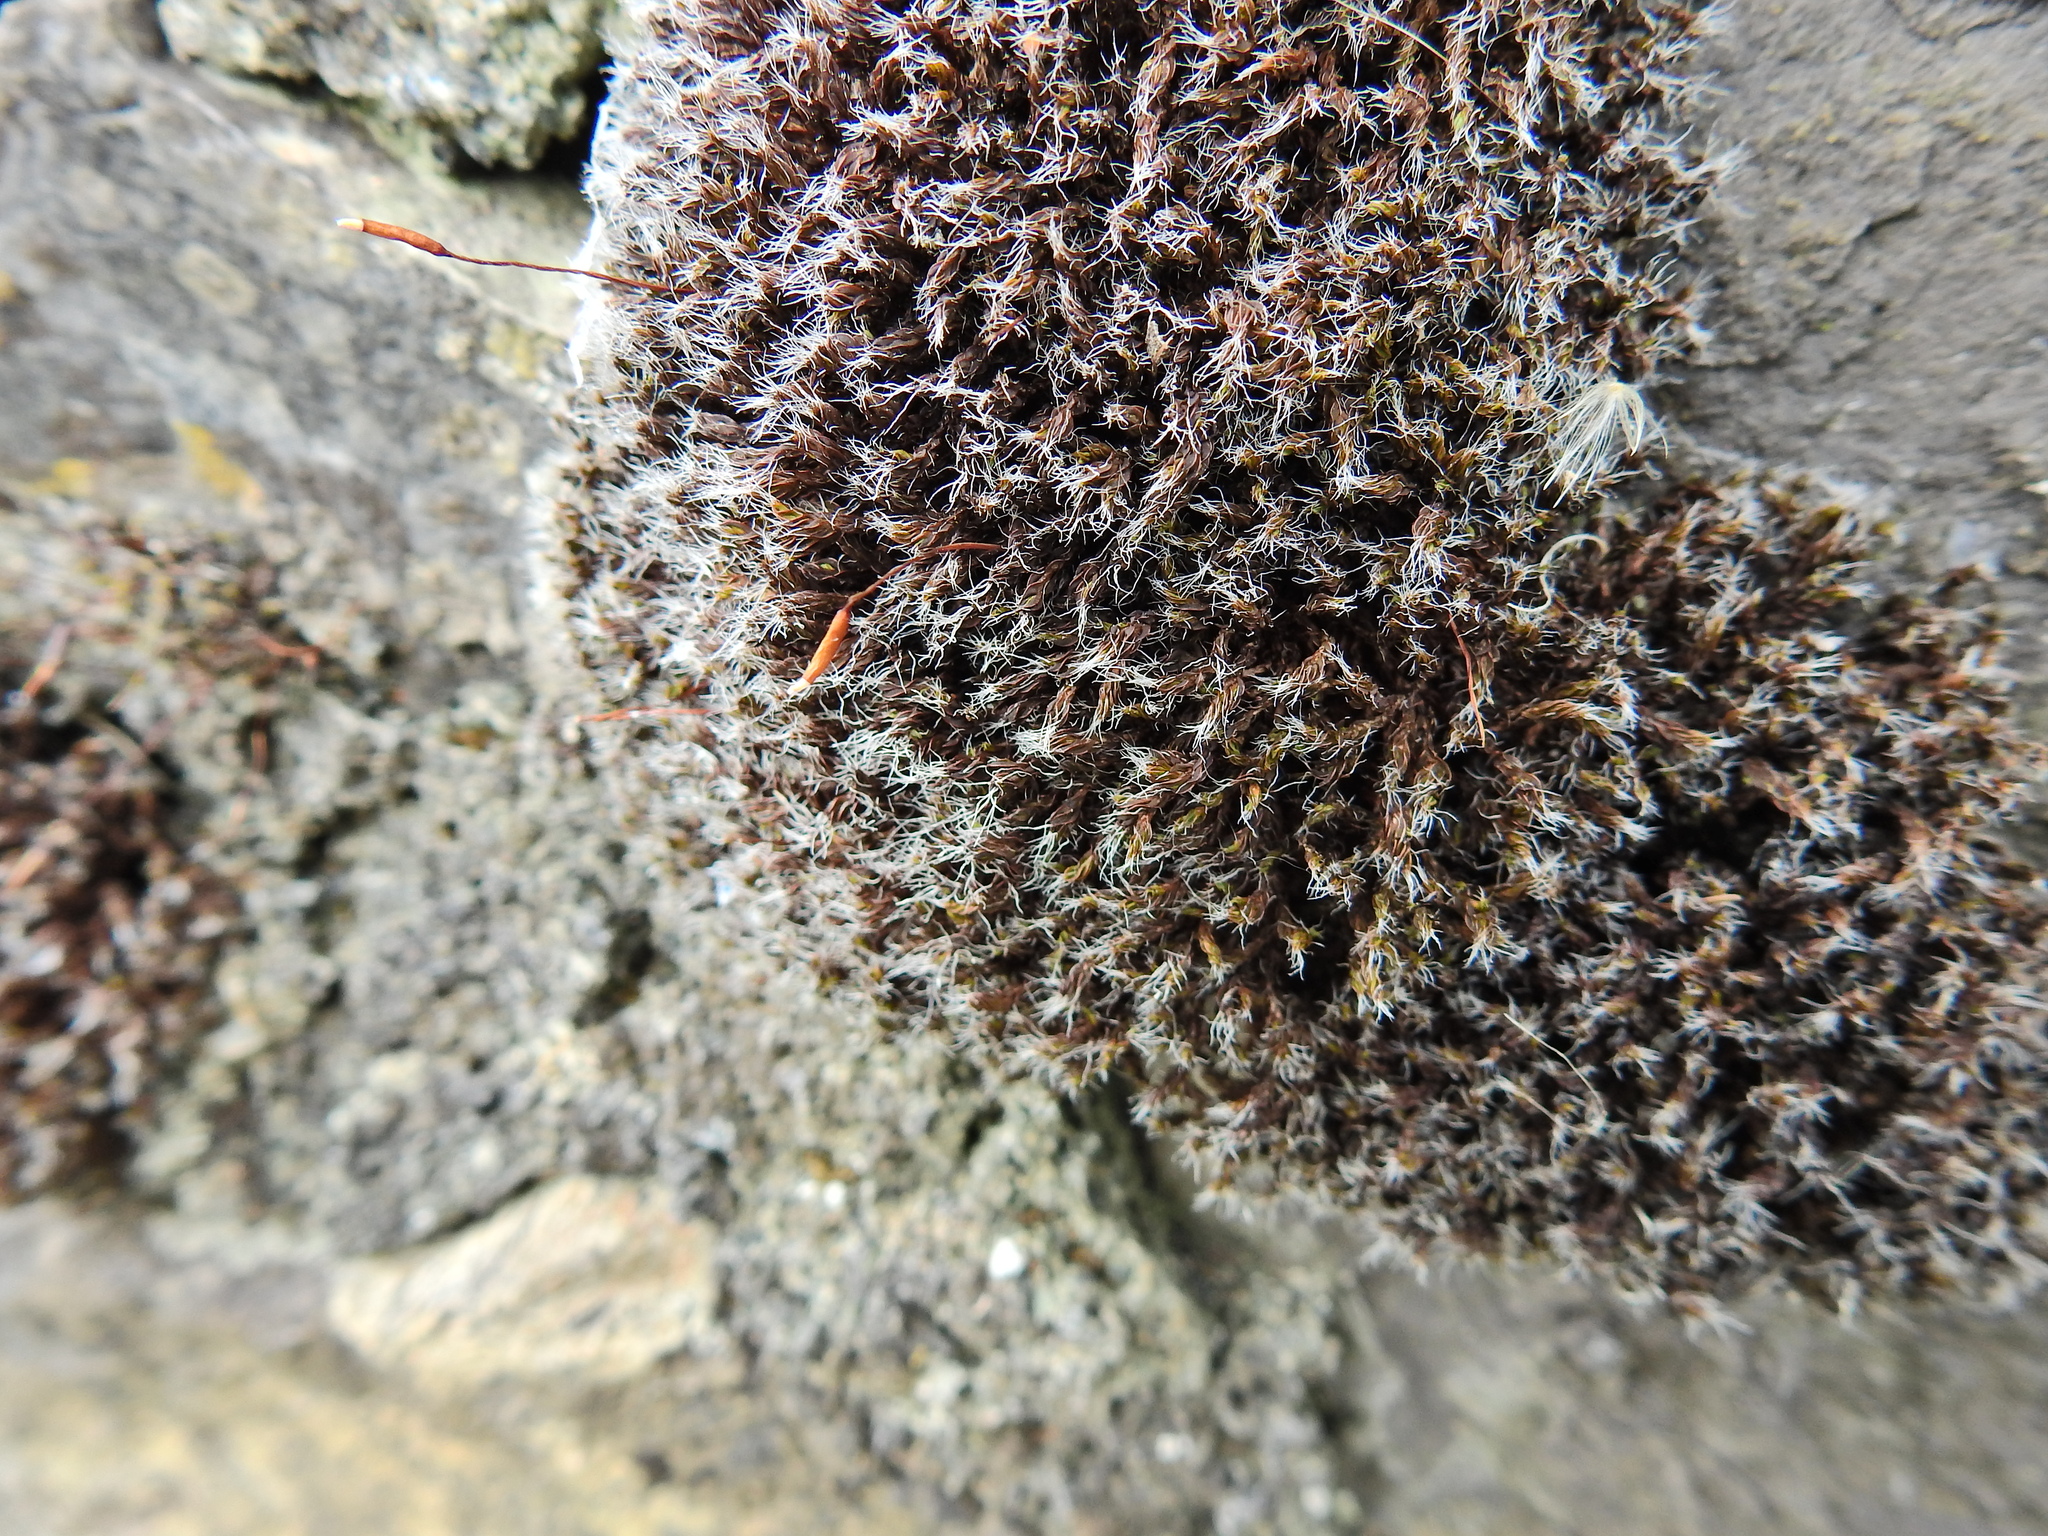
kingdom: Plantae
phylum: Bryophyta
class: Bryopsida
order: Pottiales
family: Pottiaceae
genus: Syntrichia
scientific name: Syntrichia ruralis
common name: Sidewalk screw moss
